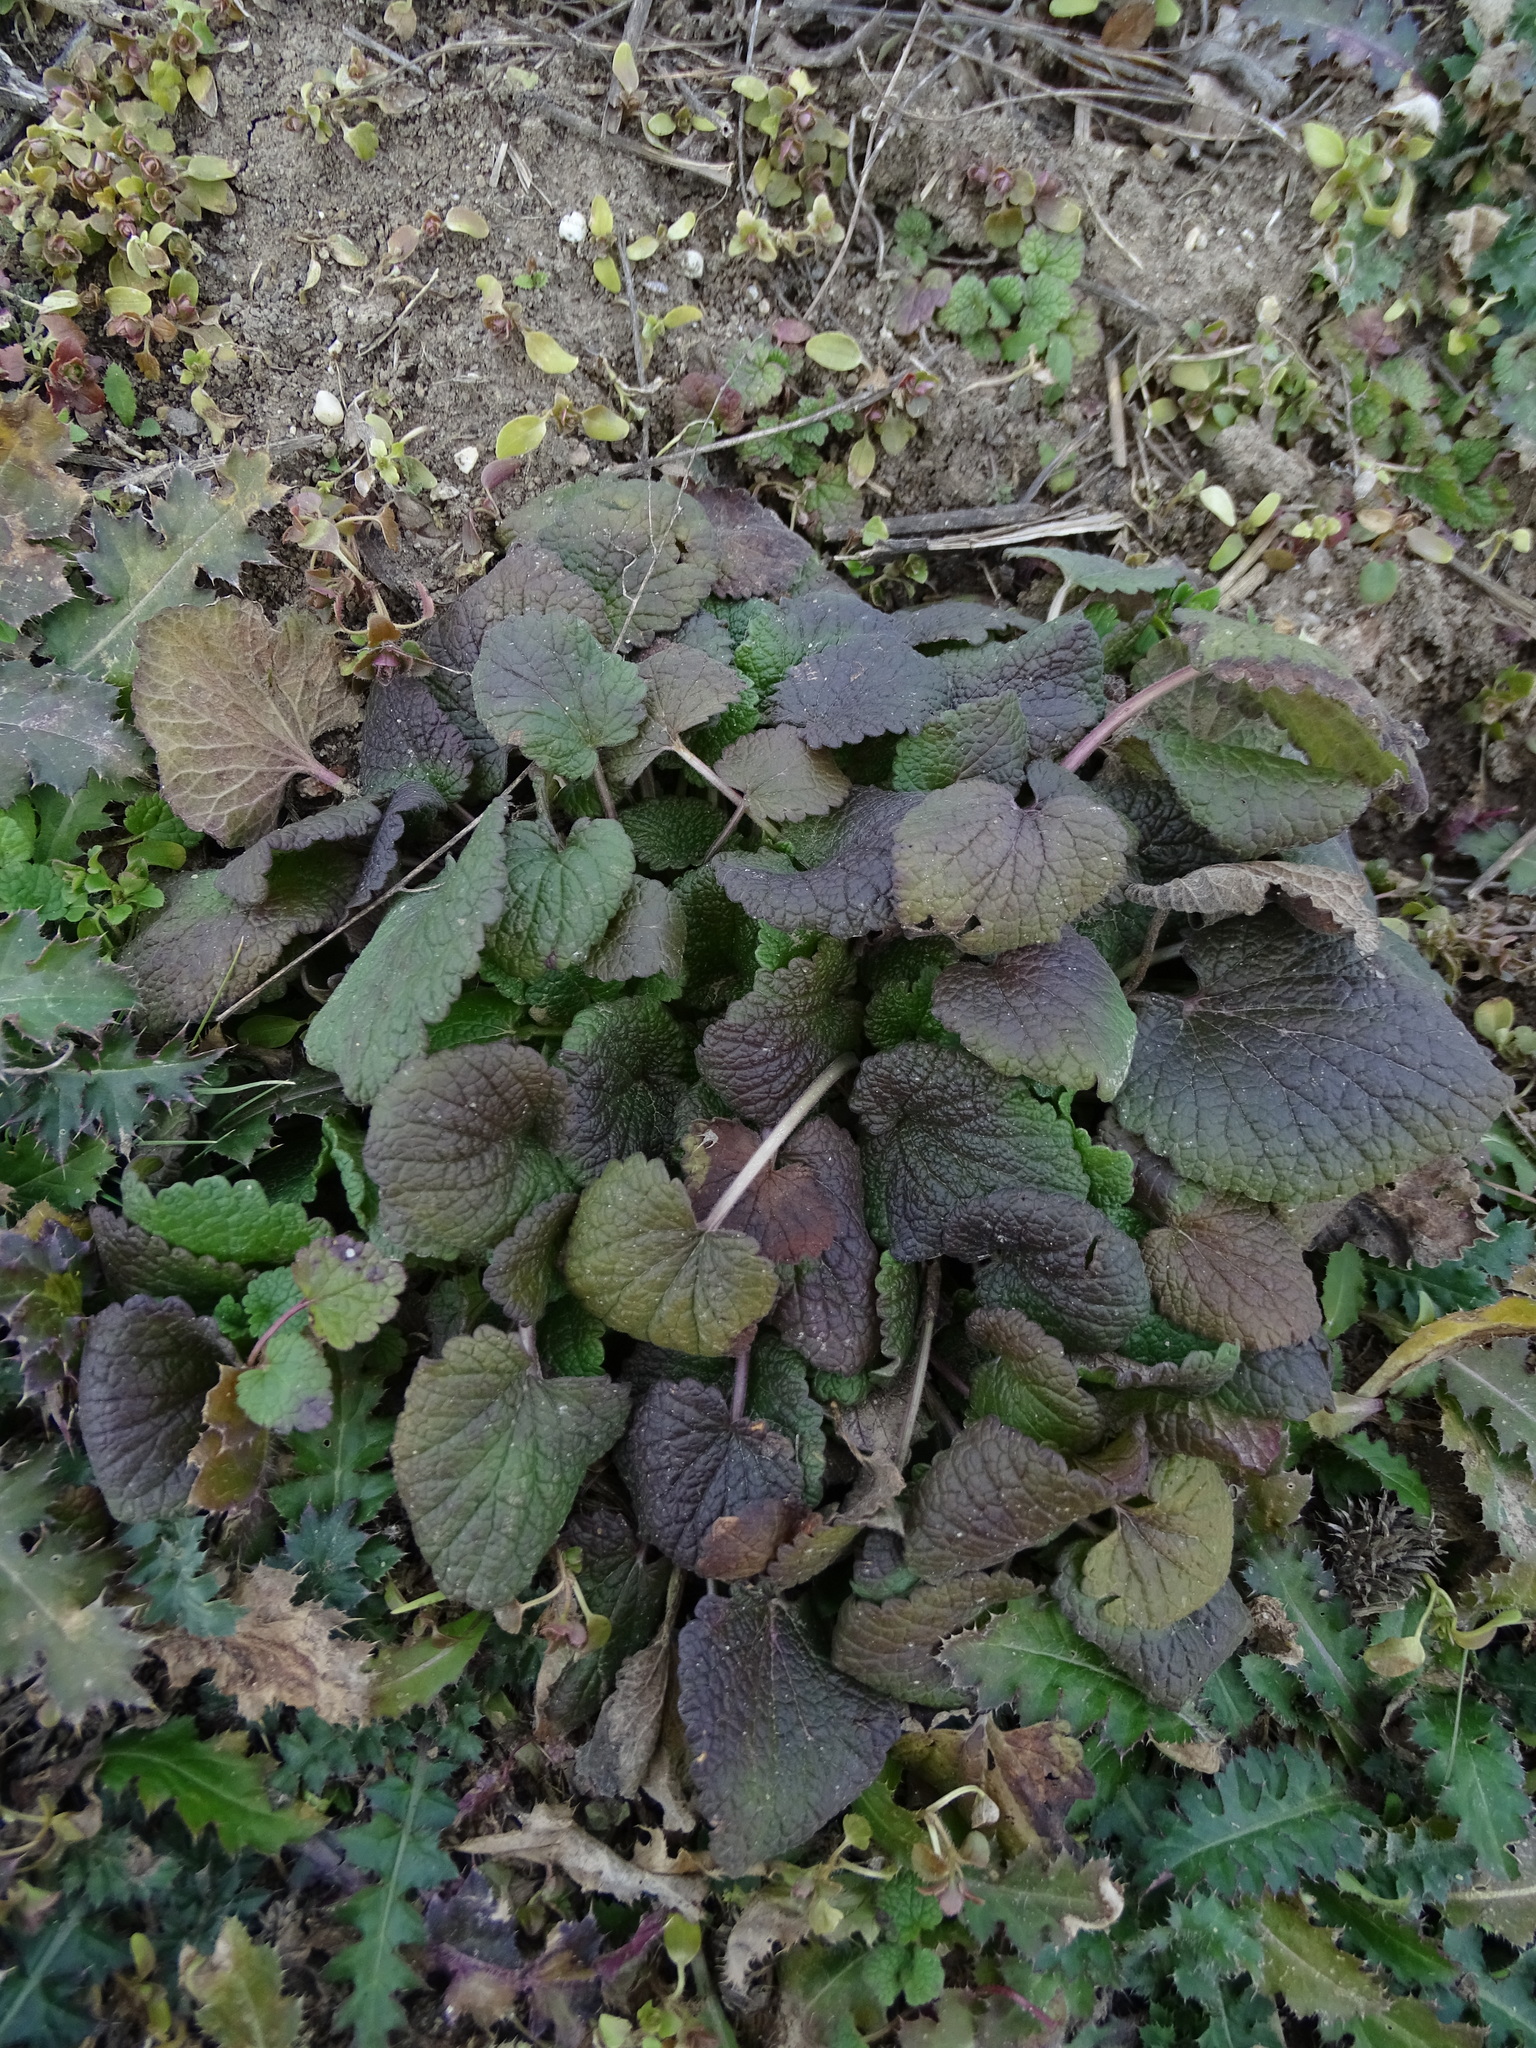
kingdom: Plantae
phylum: Tracheophyta
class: Magnoliopsida
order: Lamiales
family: Lamiaceae
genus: Lamium
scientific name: Lamium
